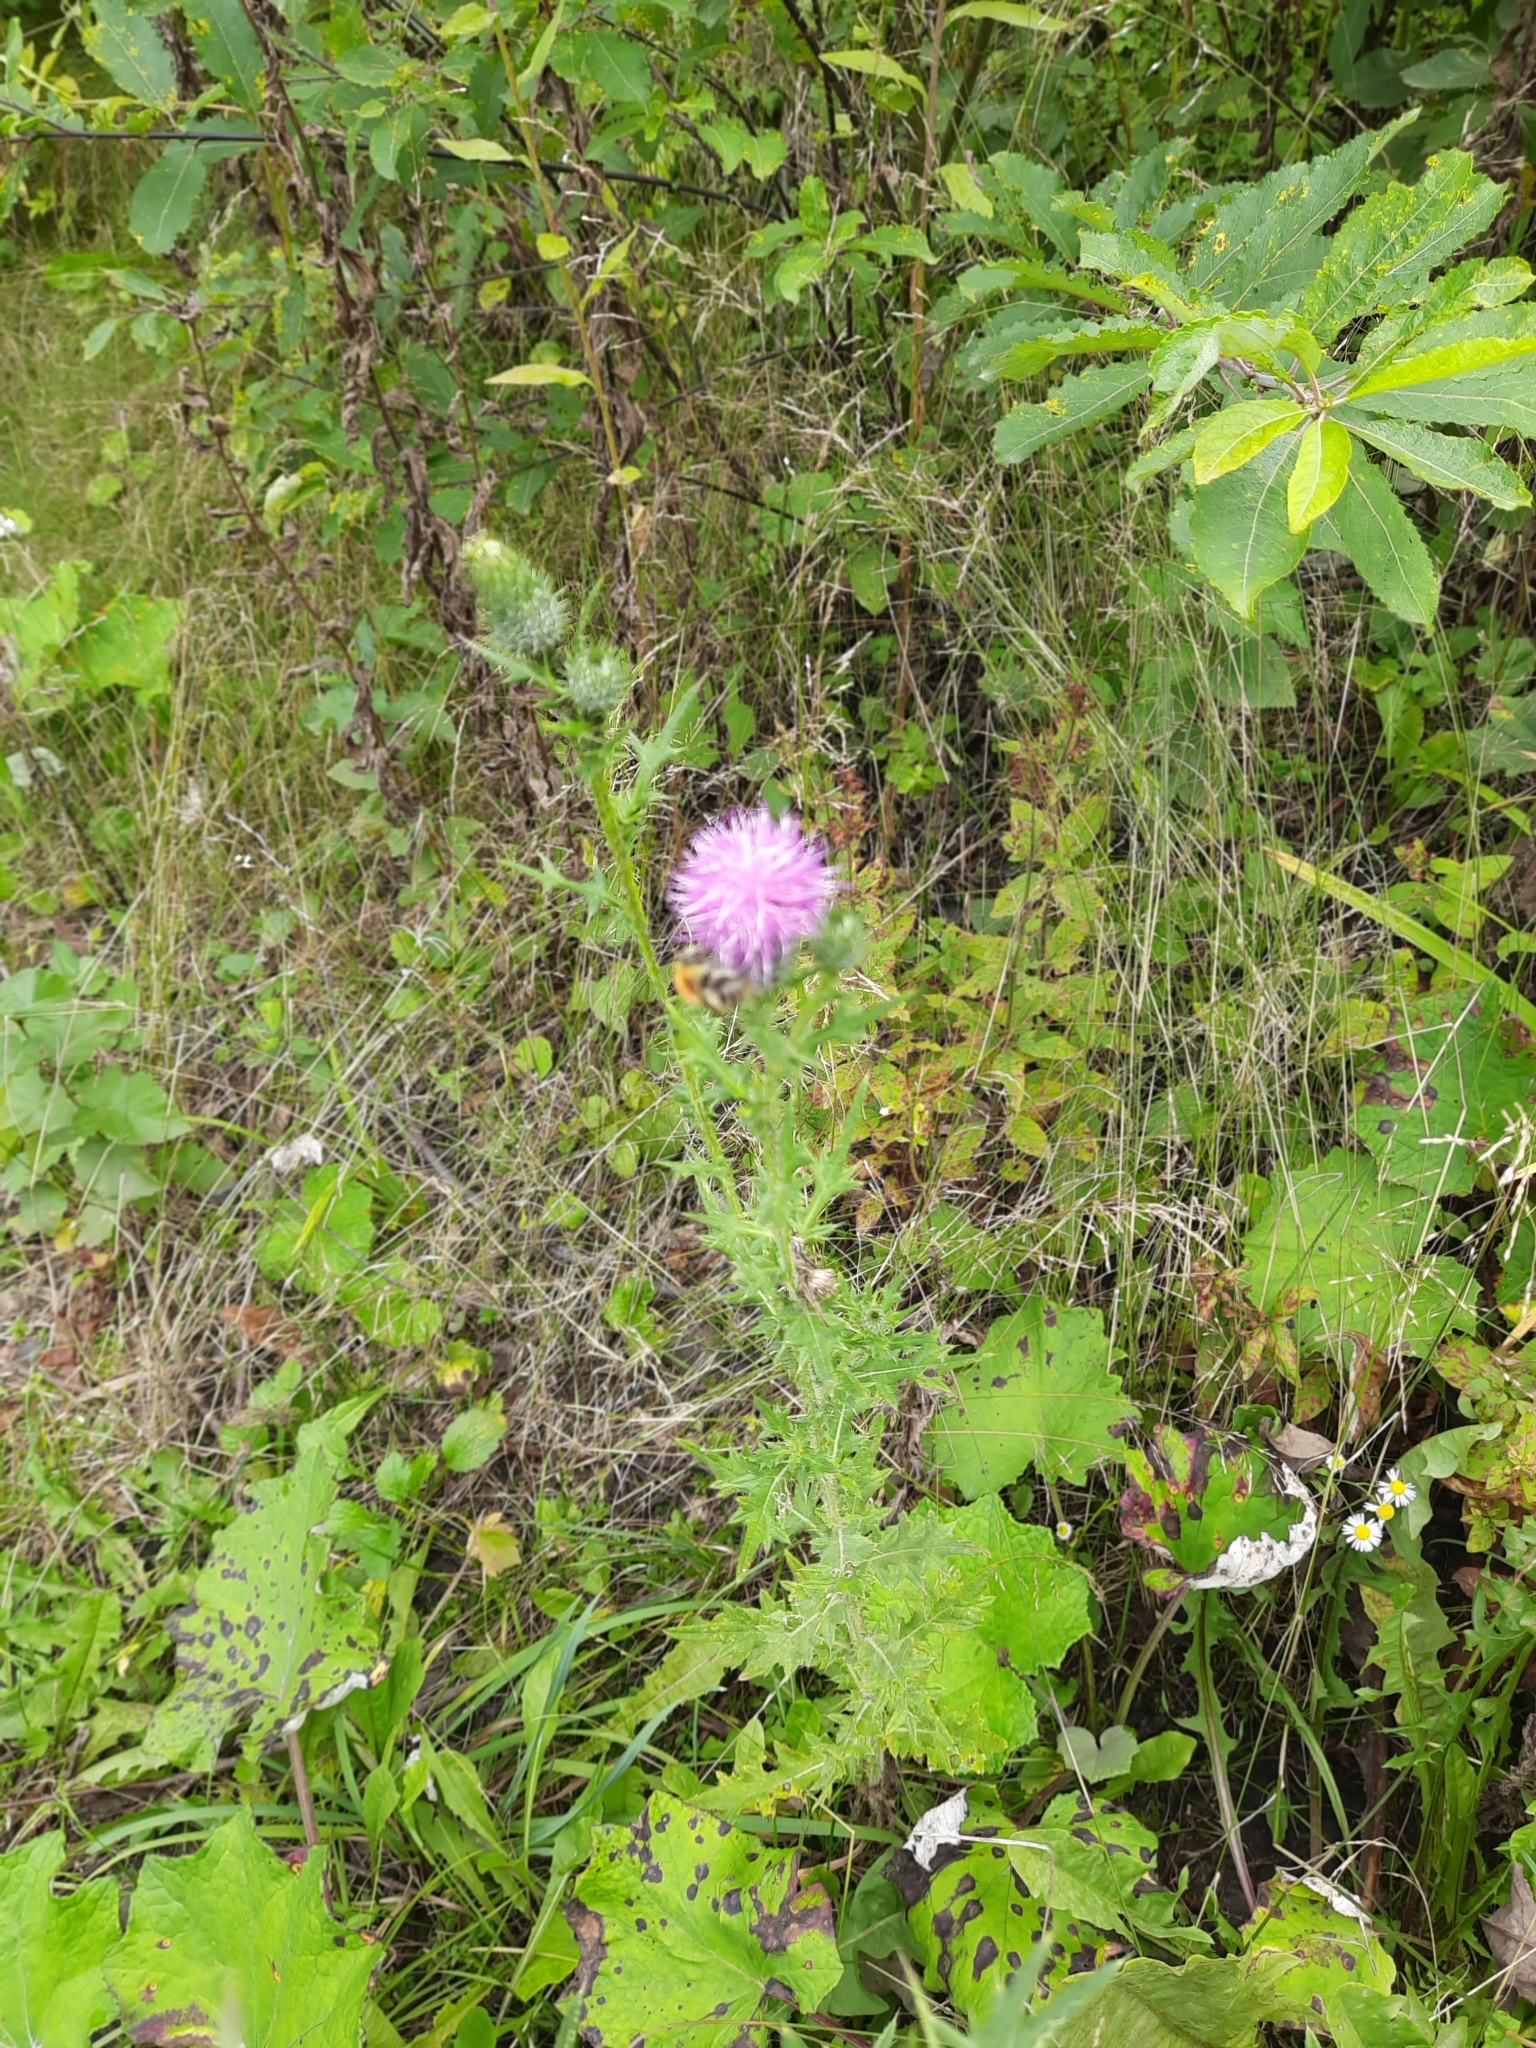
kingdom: Plantae
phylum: Tracheophyta
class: Magnoliopsida
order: Asterales
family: Asteraceae
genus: Cirsium
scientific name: Cirsium vulgare
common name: Bull thistle
